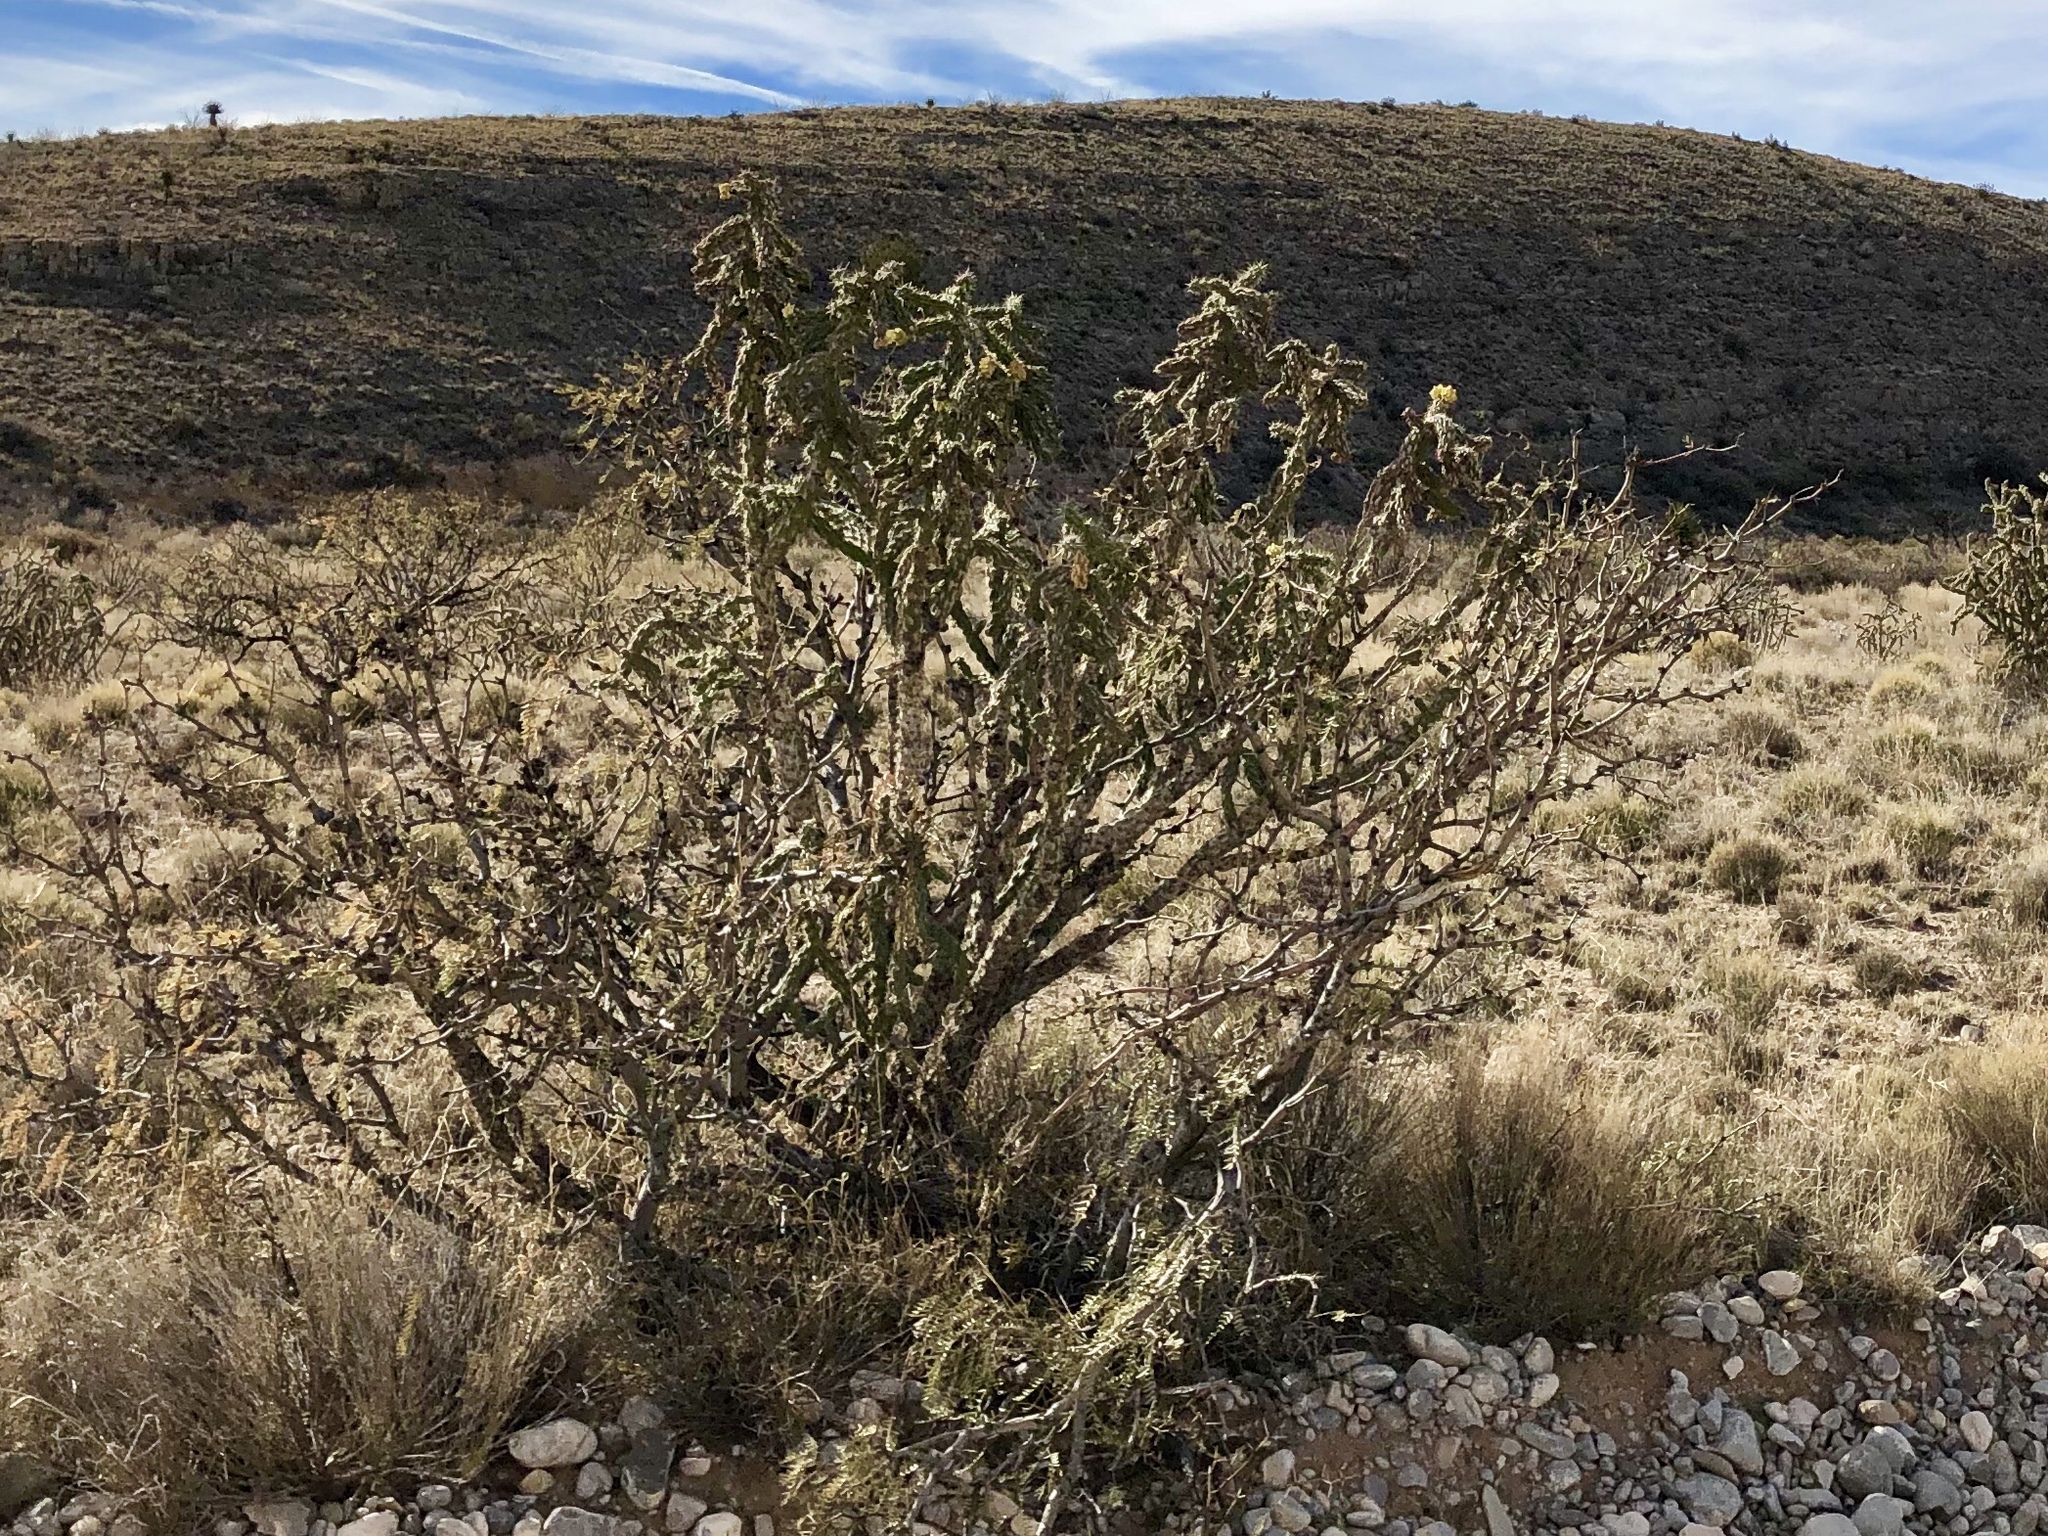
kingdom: Plantae
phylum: Tracheophyta
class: Magnoliopsida
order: Caryophyllales
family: Cactaceae
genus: Cylindropuntia
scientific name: Cylindropuntia imbricata
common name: Candelabrum cactus
